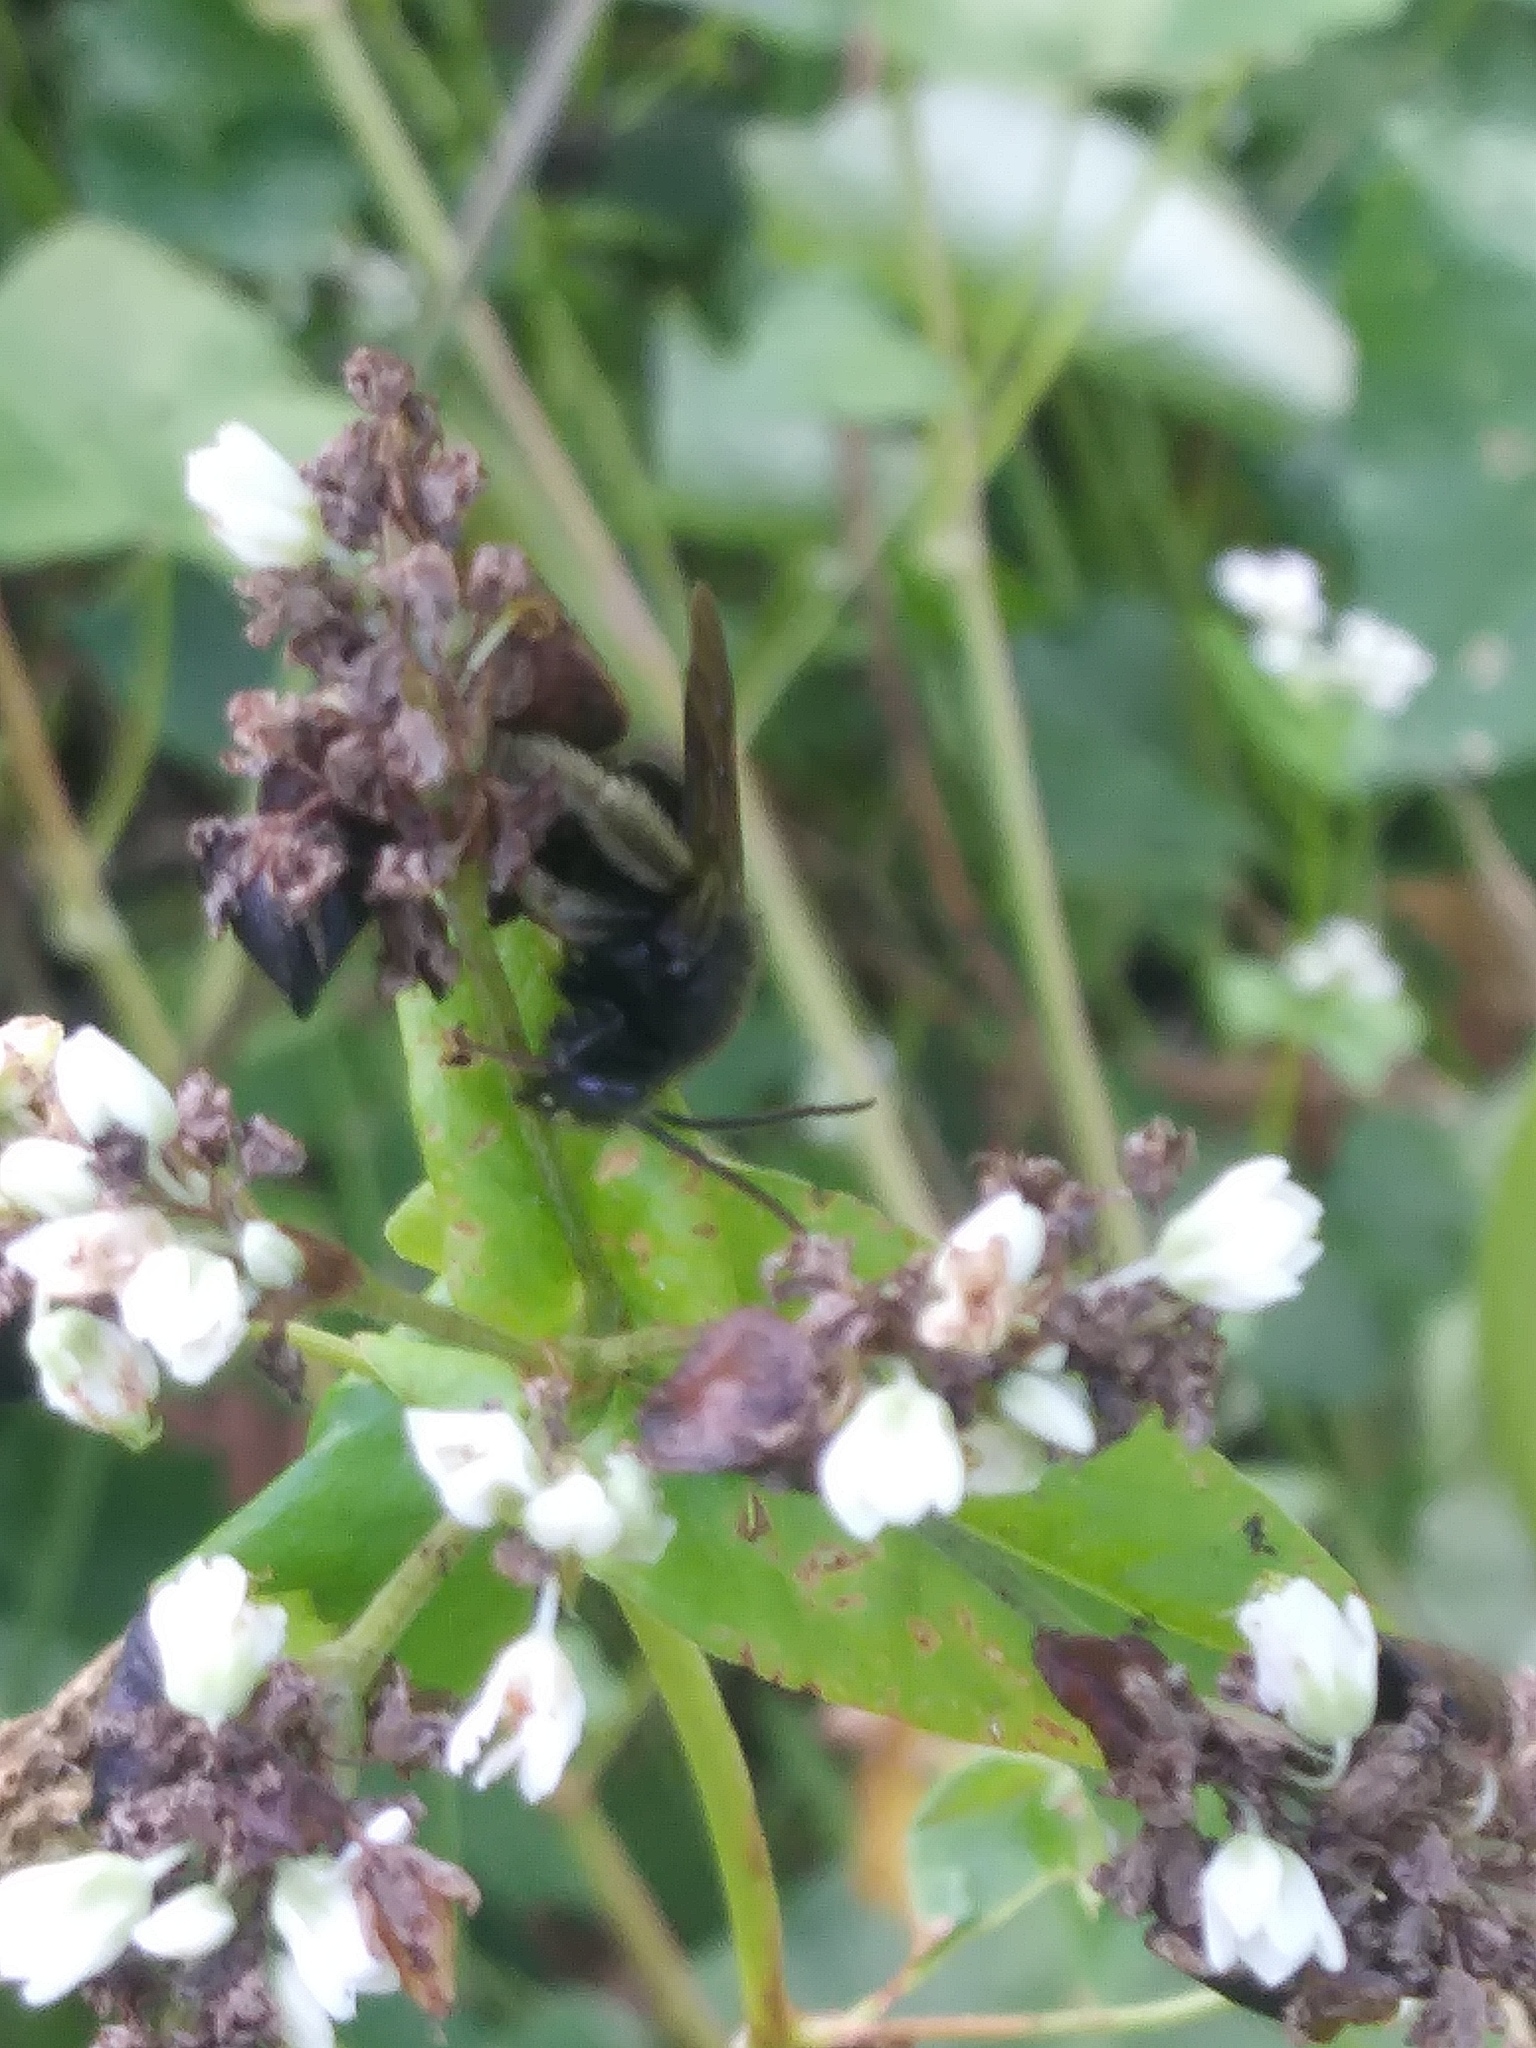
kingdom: Animalia
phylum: Arthropoda
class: Insecta
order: Hymenoptera
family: Apidae
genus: Melissodes
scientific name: Melissodes bimaculatus
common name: Two-spotted long-horned bee
